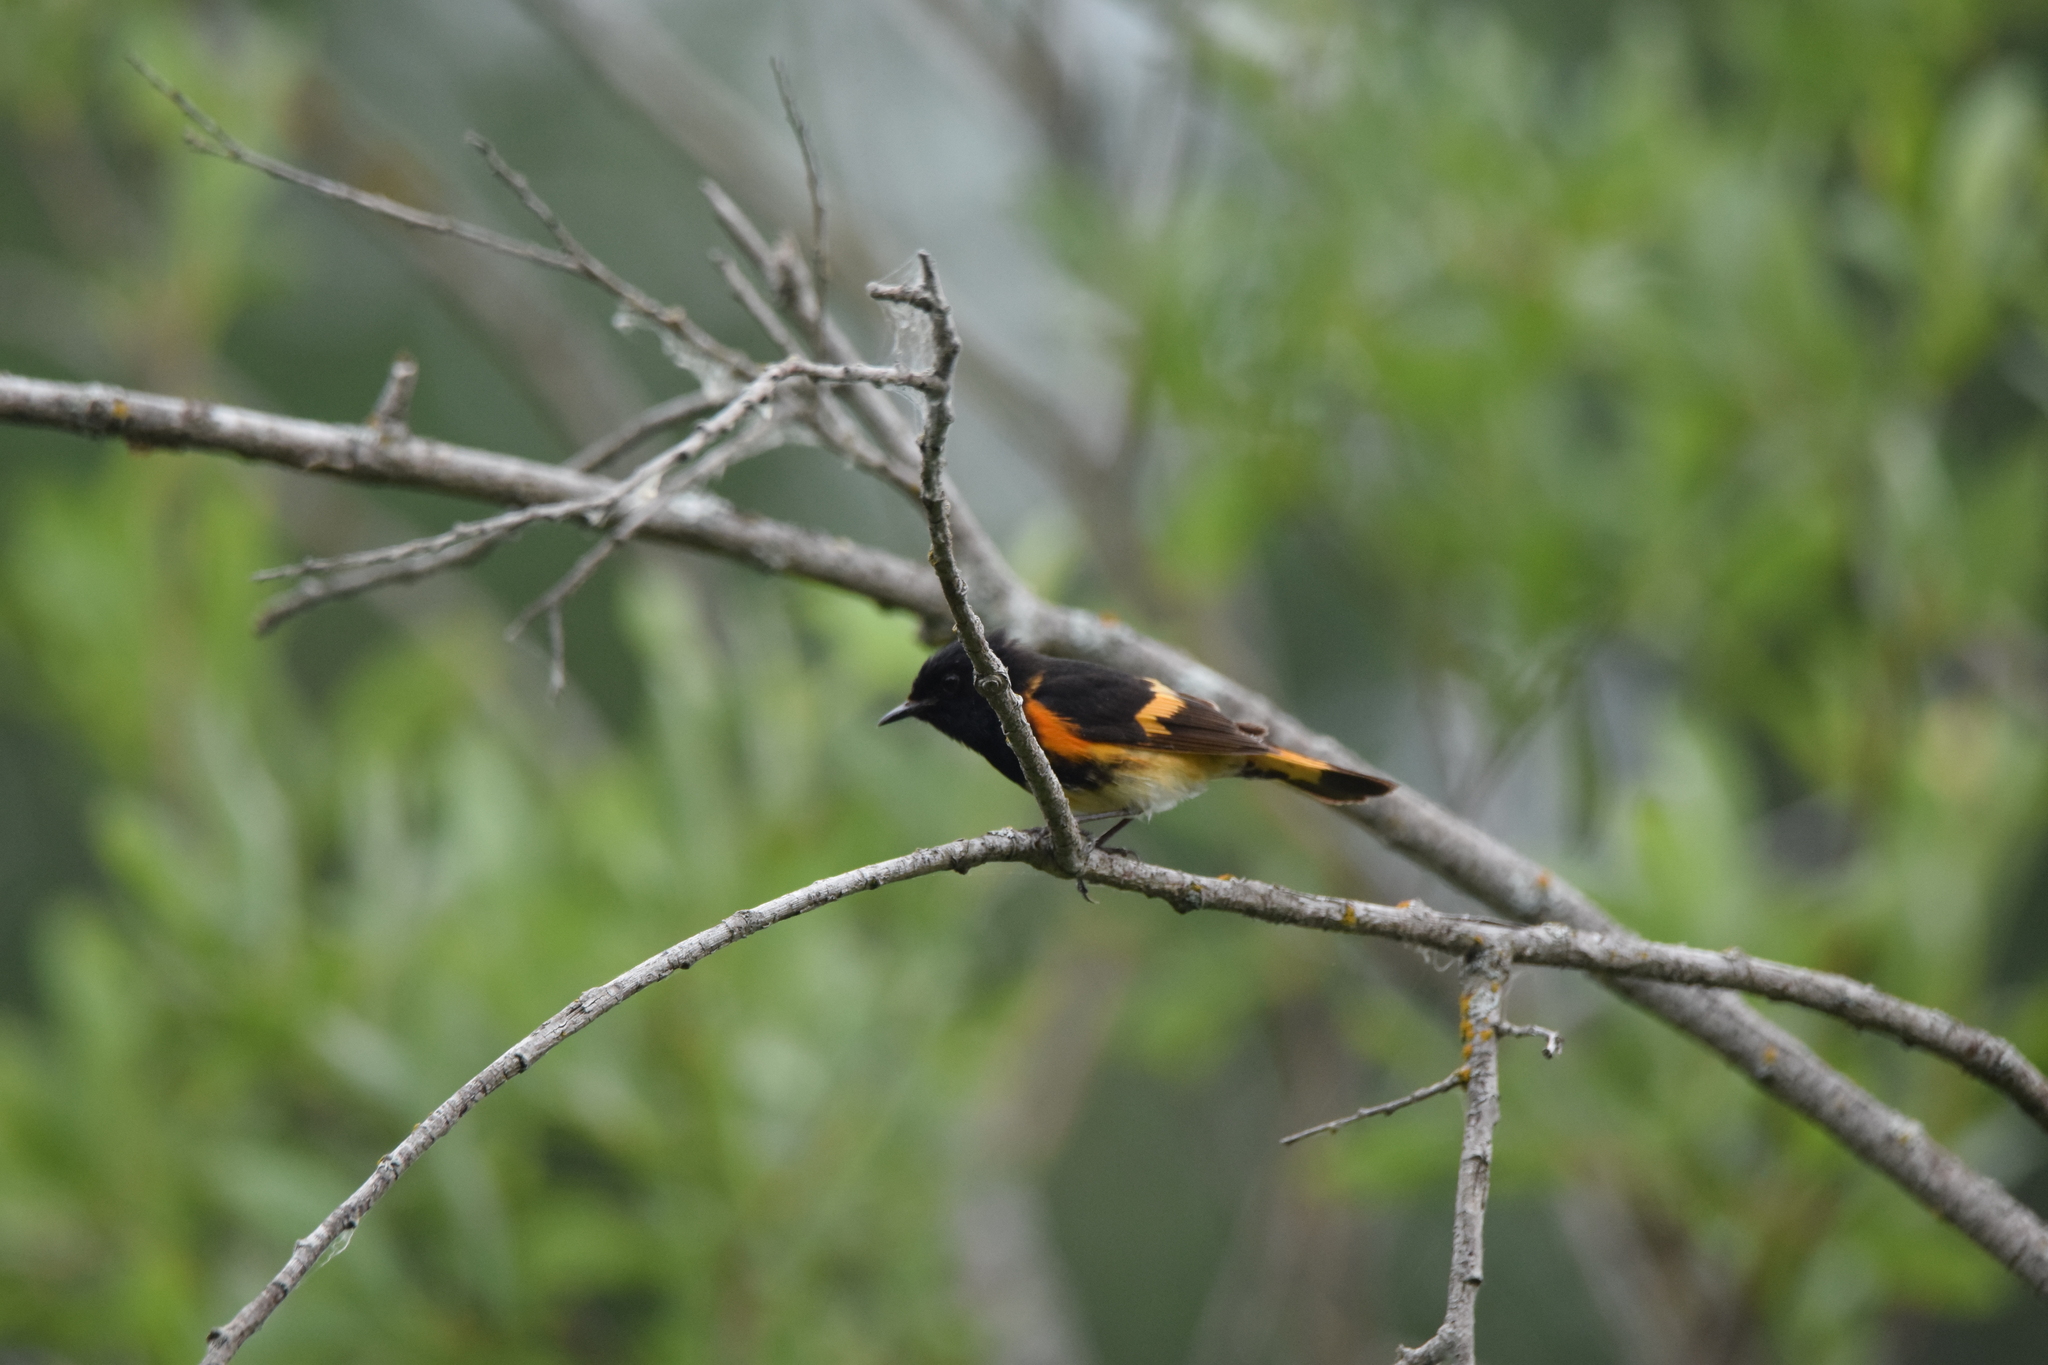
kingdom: Animalia
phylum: Chordata
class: Aves
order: Passeriformes
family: Parulidae
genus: Setophaga
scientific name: Setophaga ruticilla
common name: American redstart
